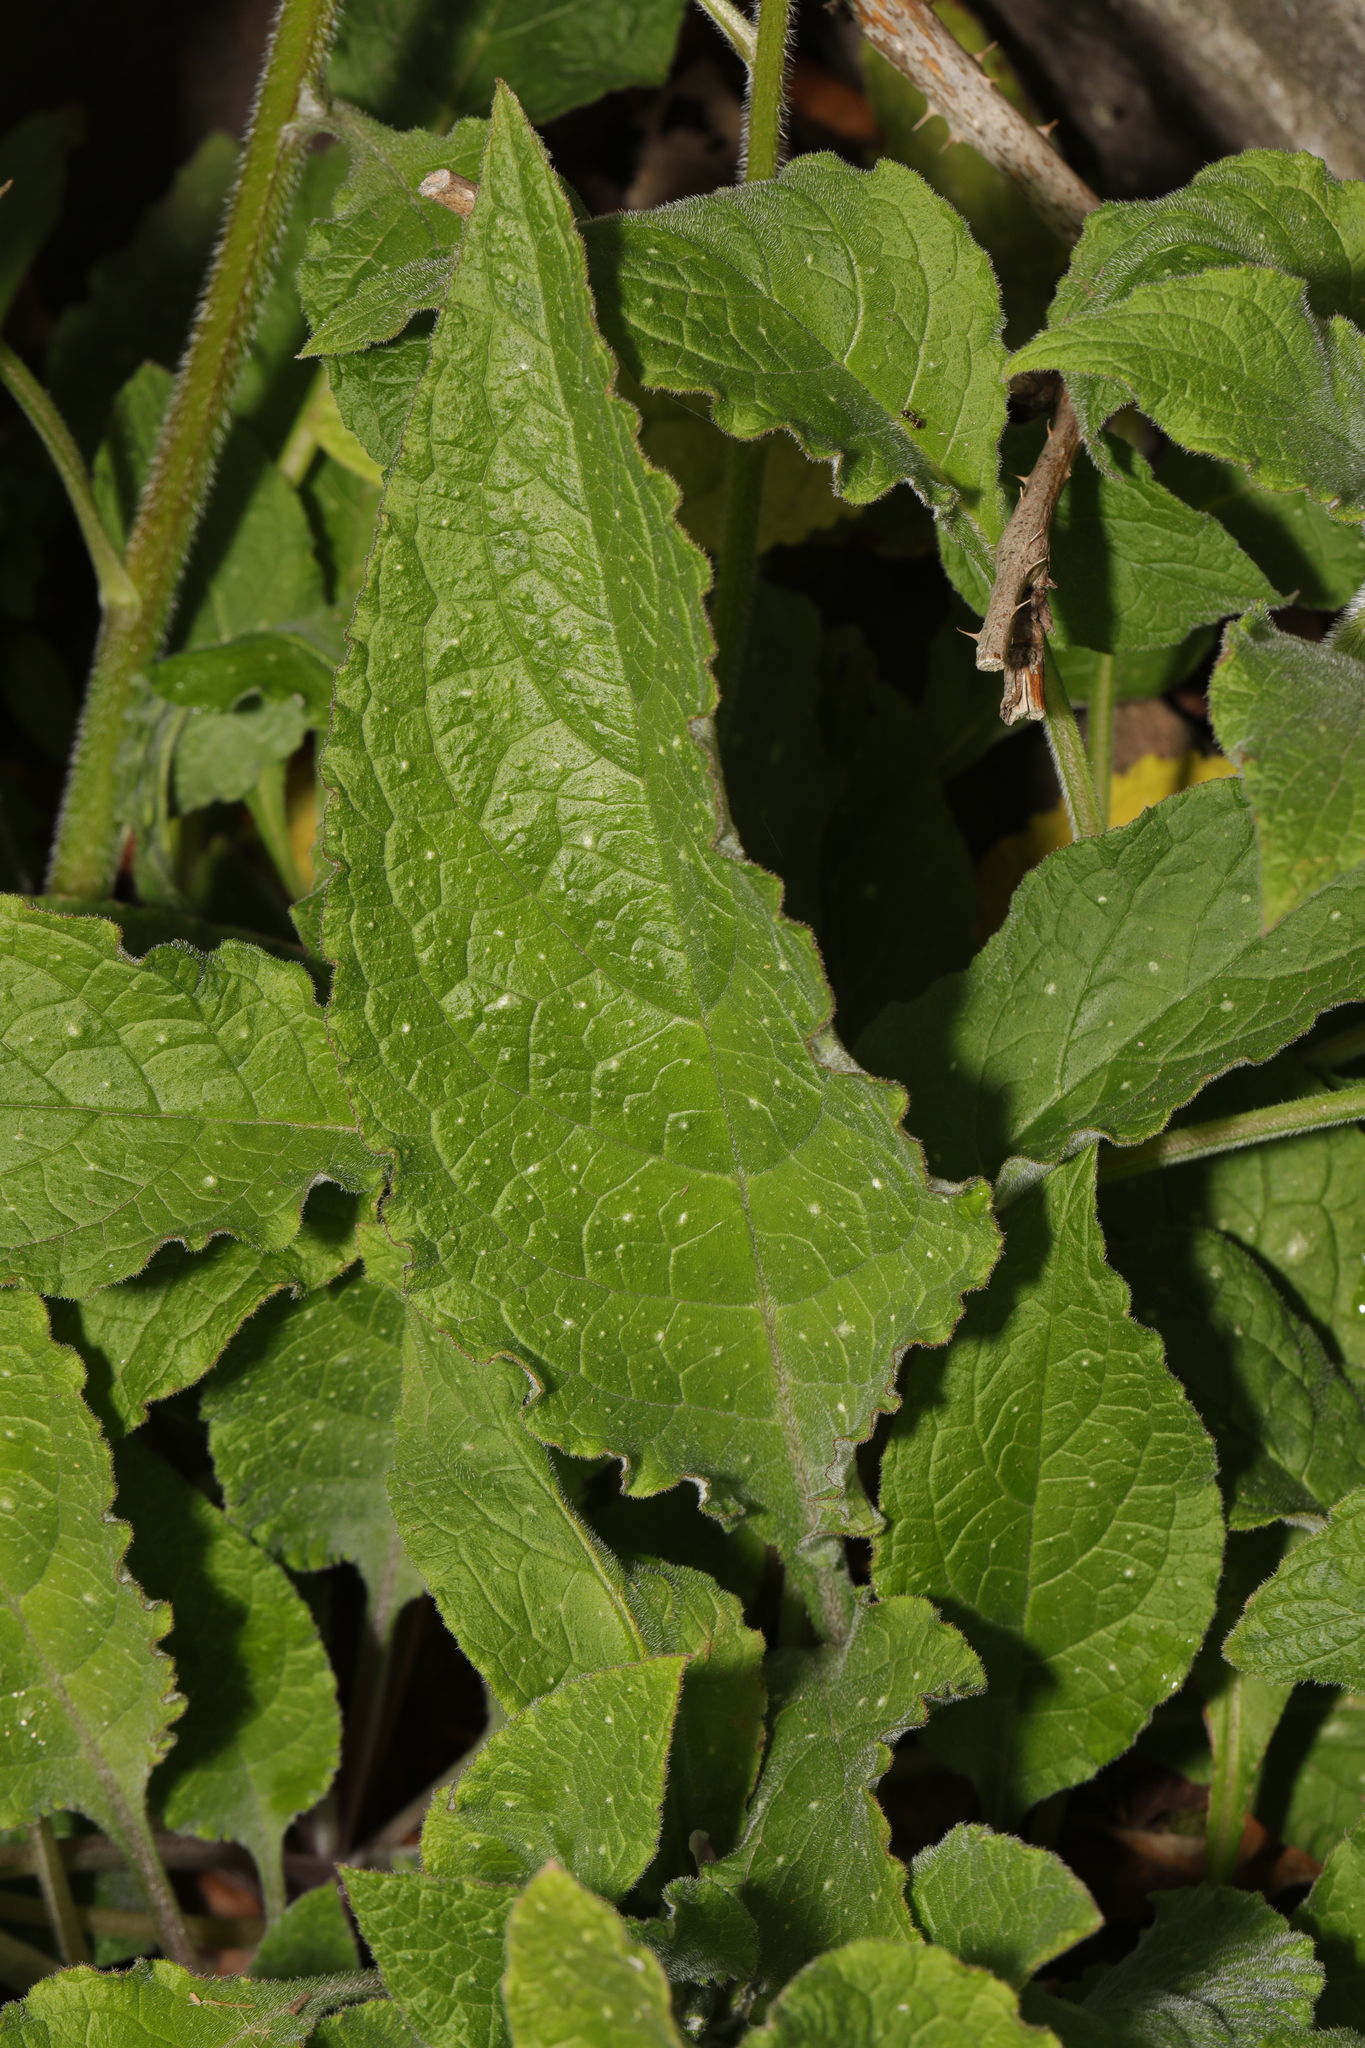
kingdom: Plantae
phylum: Tracheophyta
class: Magnoliopsida
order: Boraginales
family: Boraginaceae
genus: Pentaglottis
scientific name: Pentaglottis sempervirens
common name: Green alkanet
